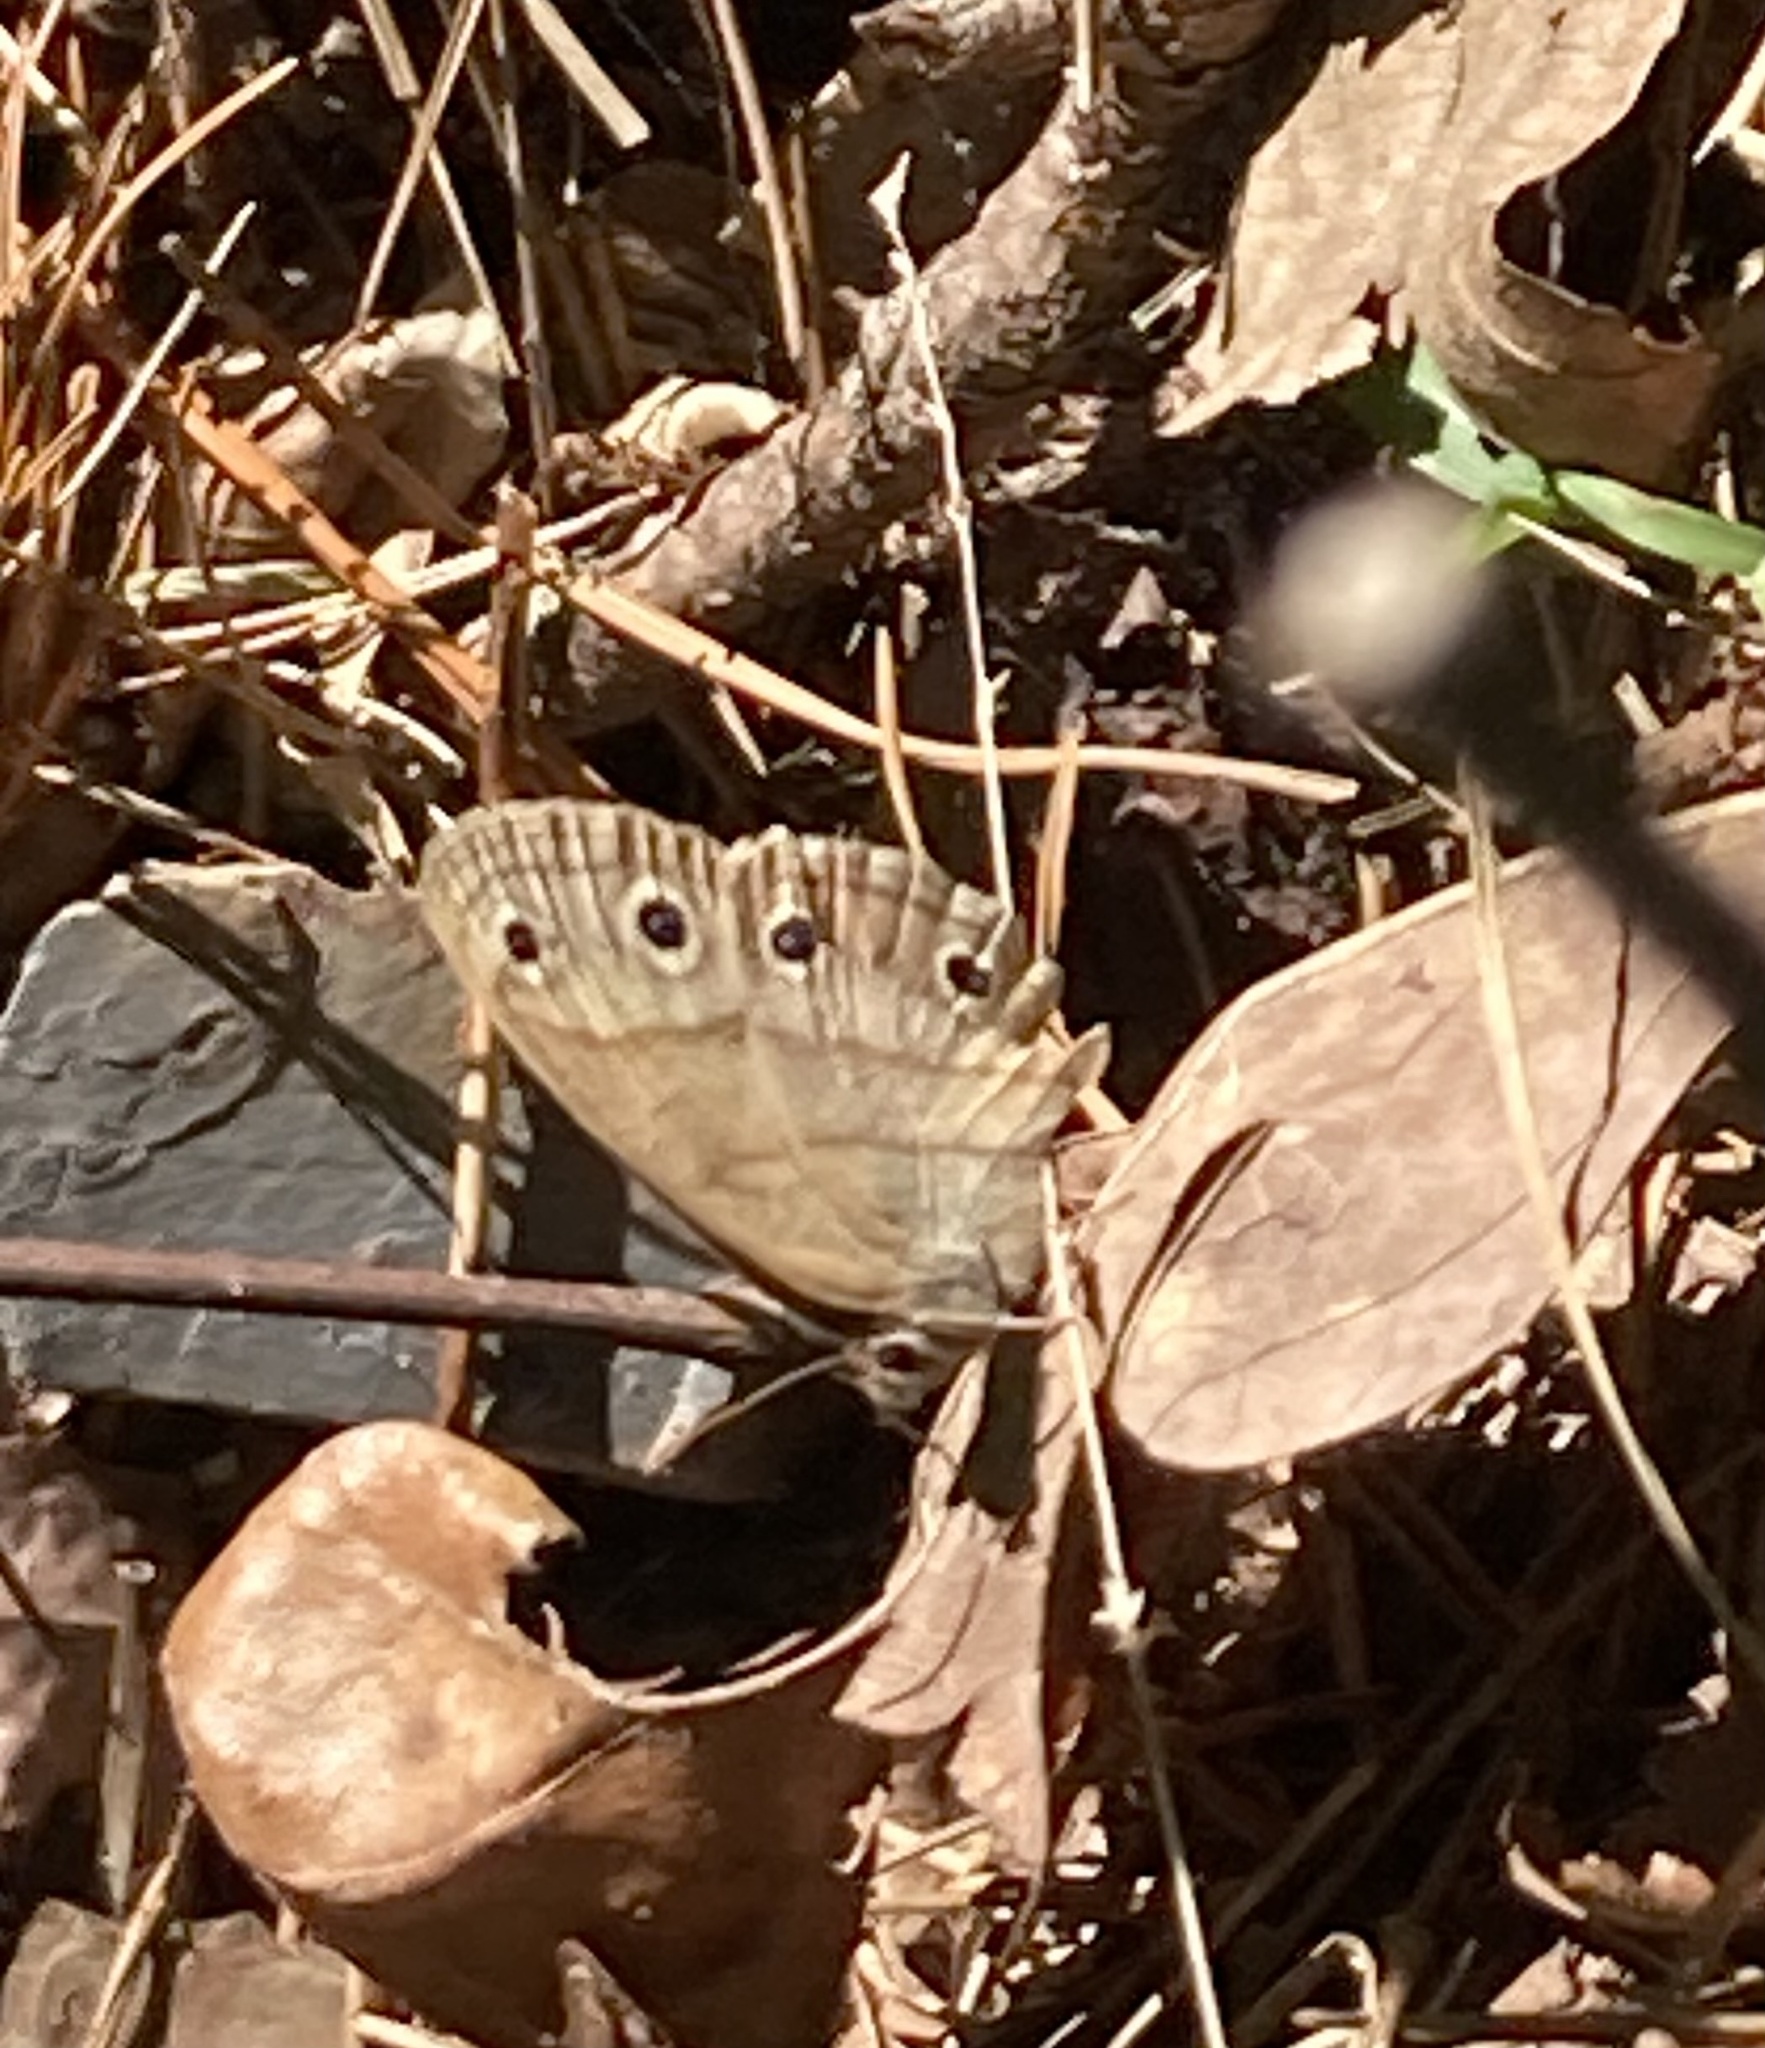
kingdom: Animalia
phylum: Arthropoda
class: Insecta
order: Lepidoptera
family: Nymphalidae
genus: Euptychia
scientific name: Euptychia cymela
